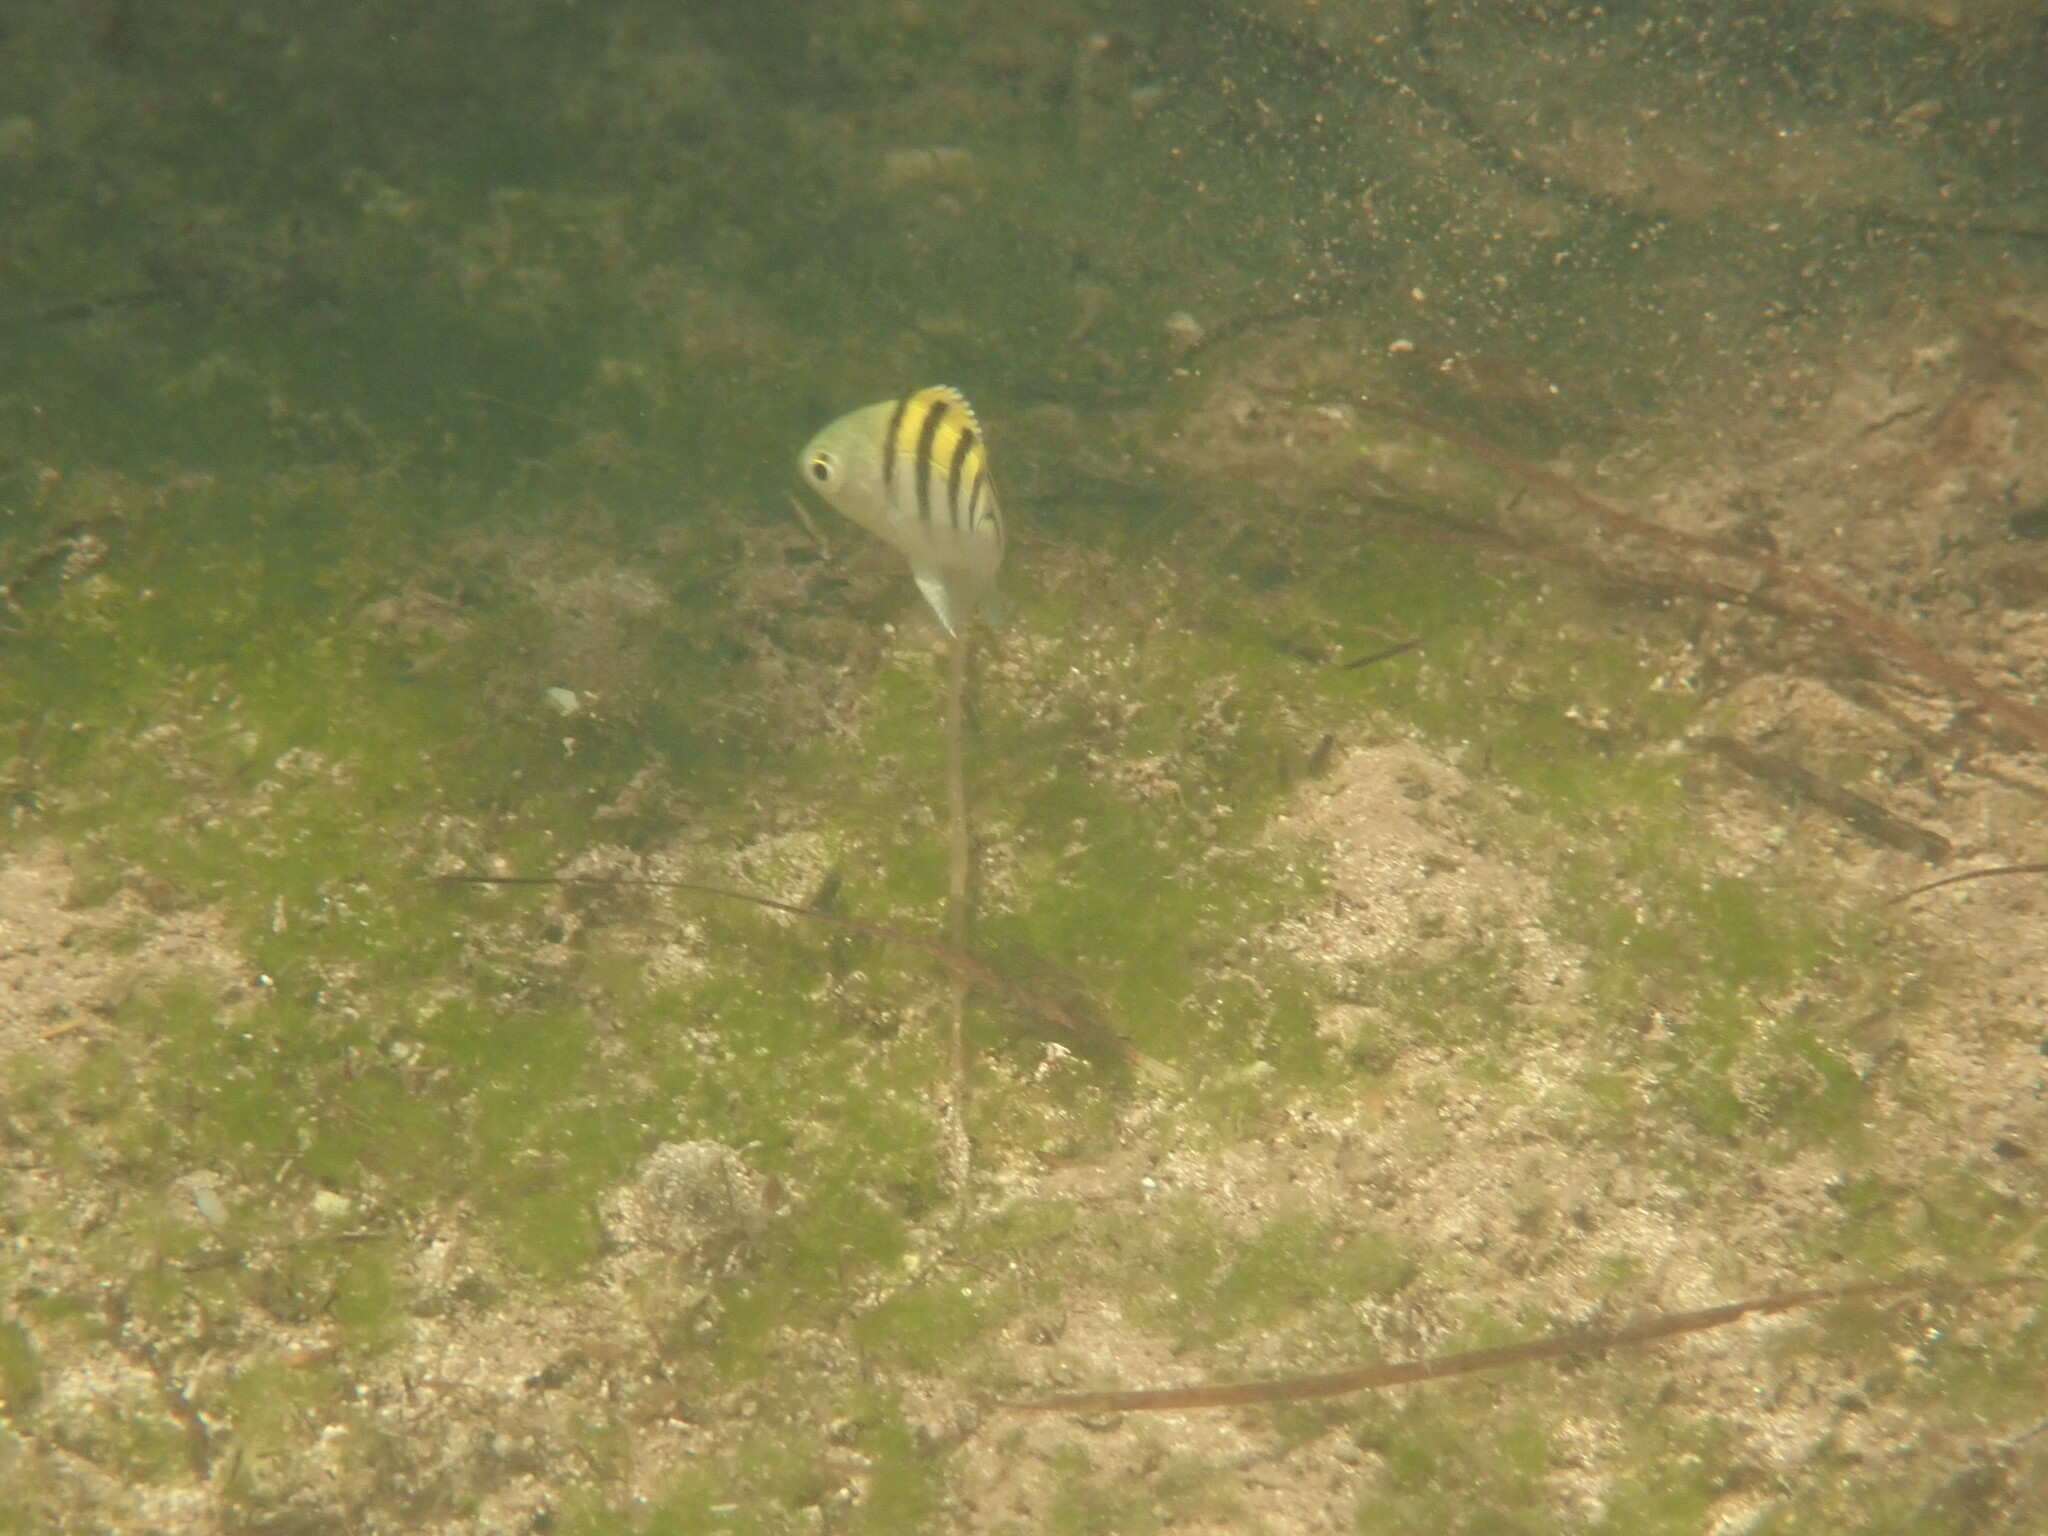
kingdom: Animalia
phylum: Chordata
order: Perciformes
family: Pomacentridae
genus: Abudefduf
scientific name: Abudefduf saxatilis
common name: Sergeant major
